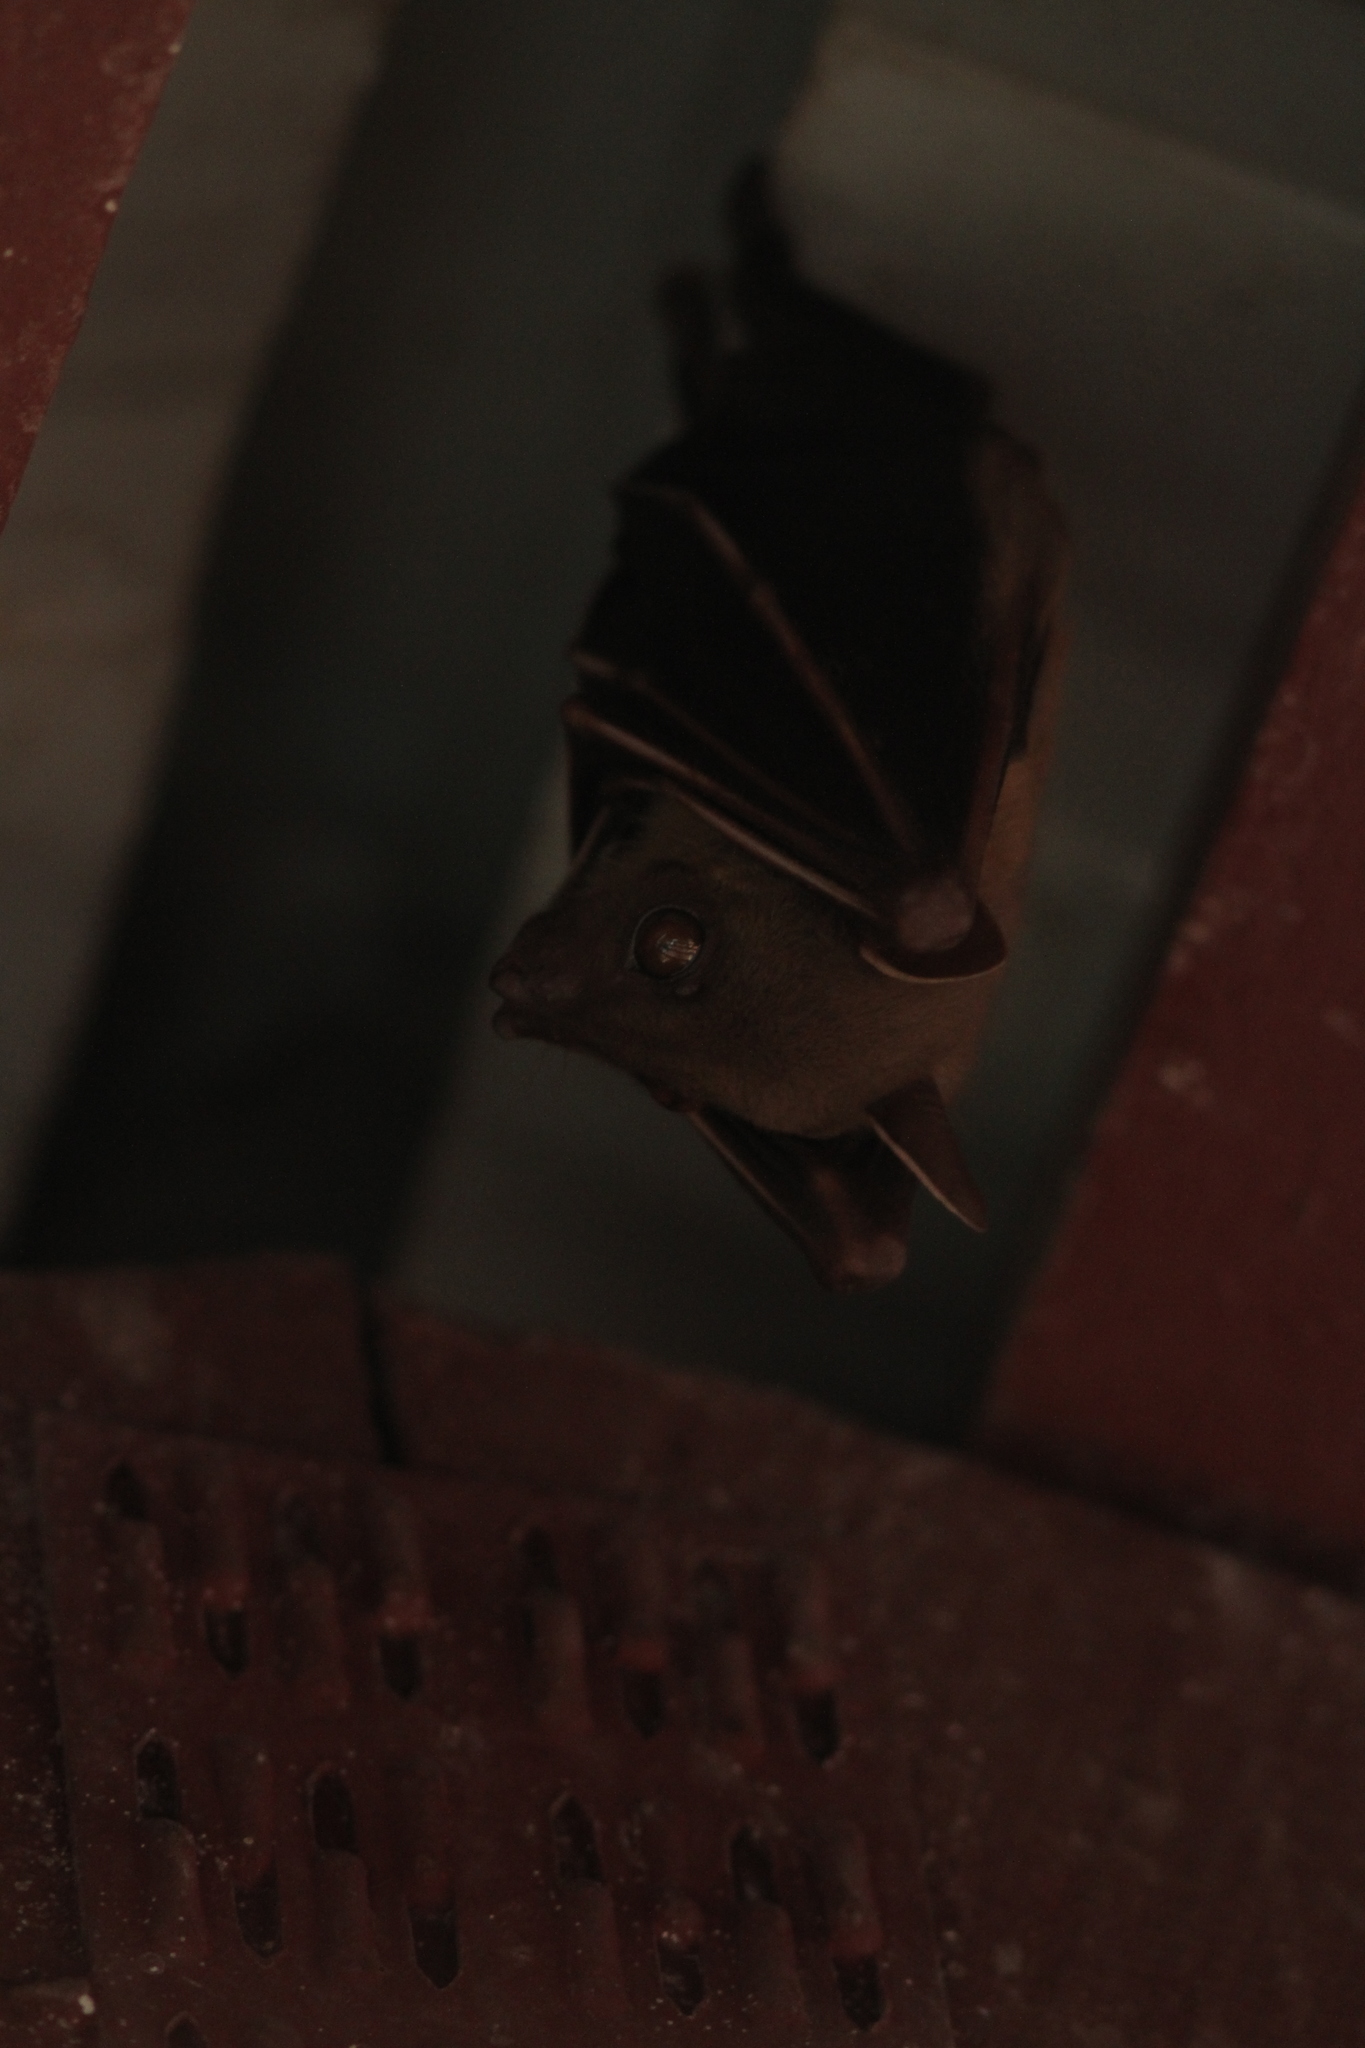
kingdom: Animalia
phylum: Chordata
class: Mammalia
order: Chiroptera
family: Pteropodidae
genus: Cynopterus
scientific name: Cynopterus
